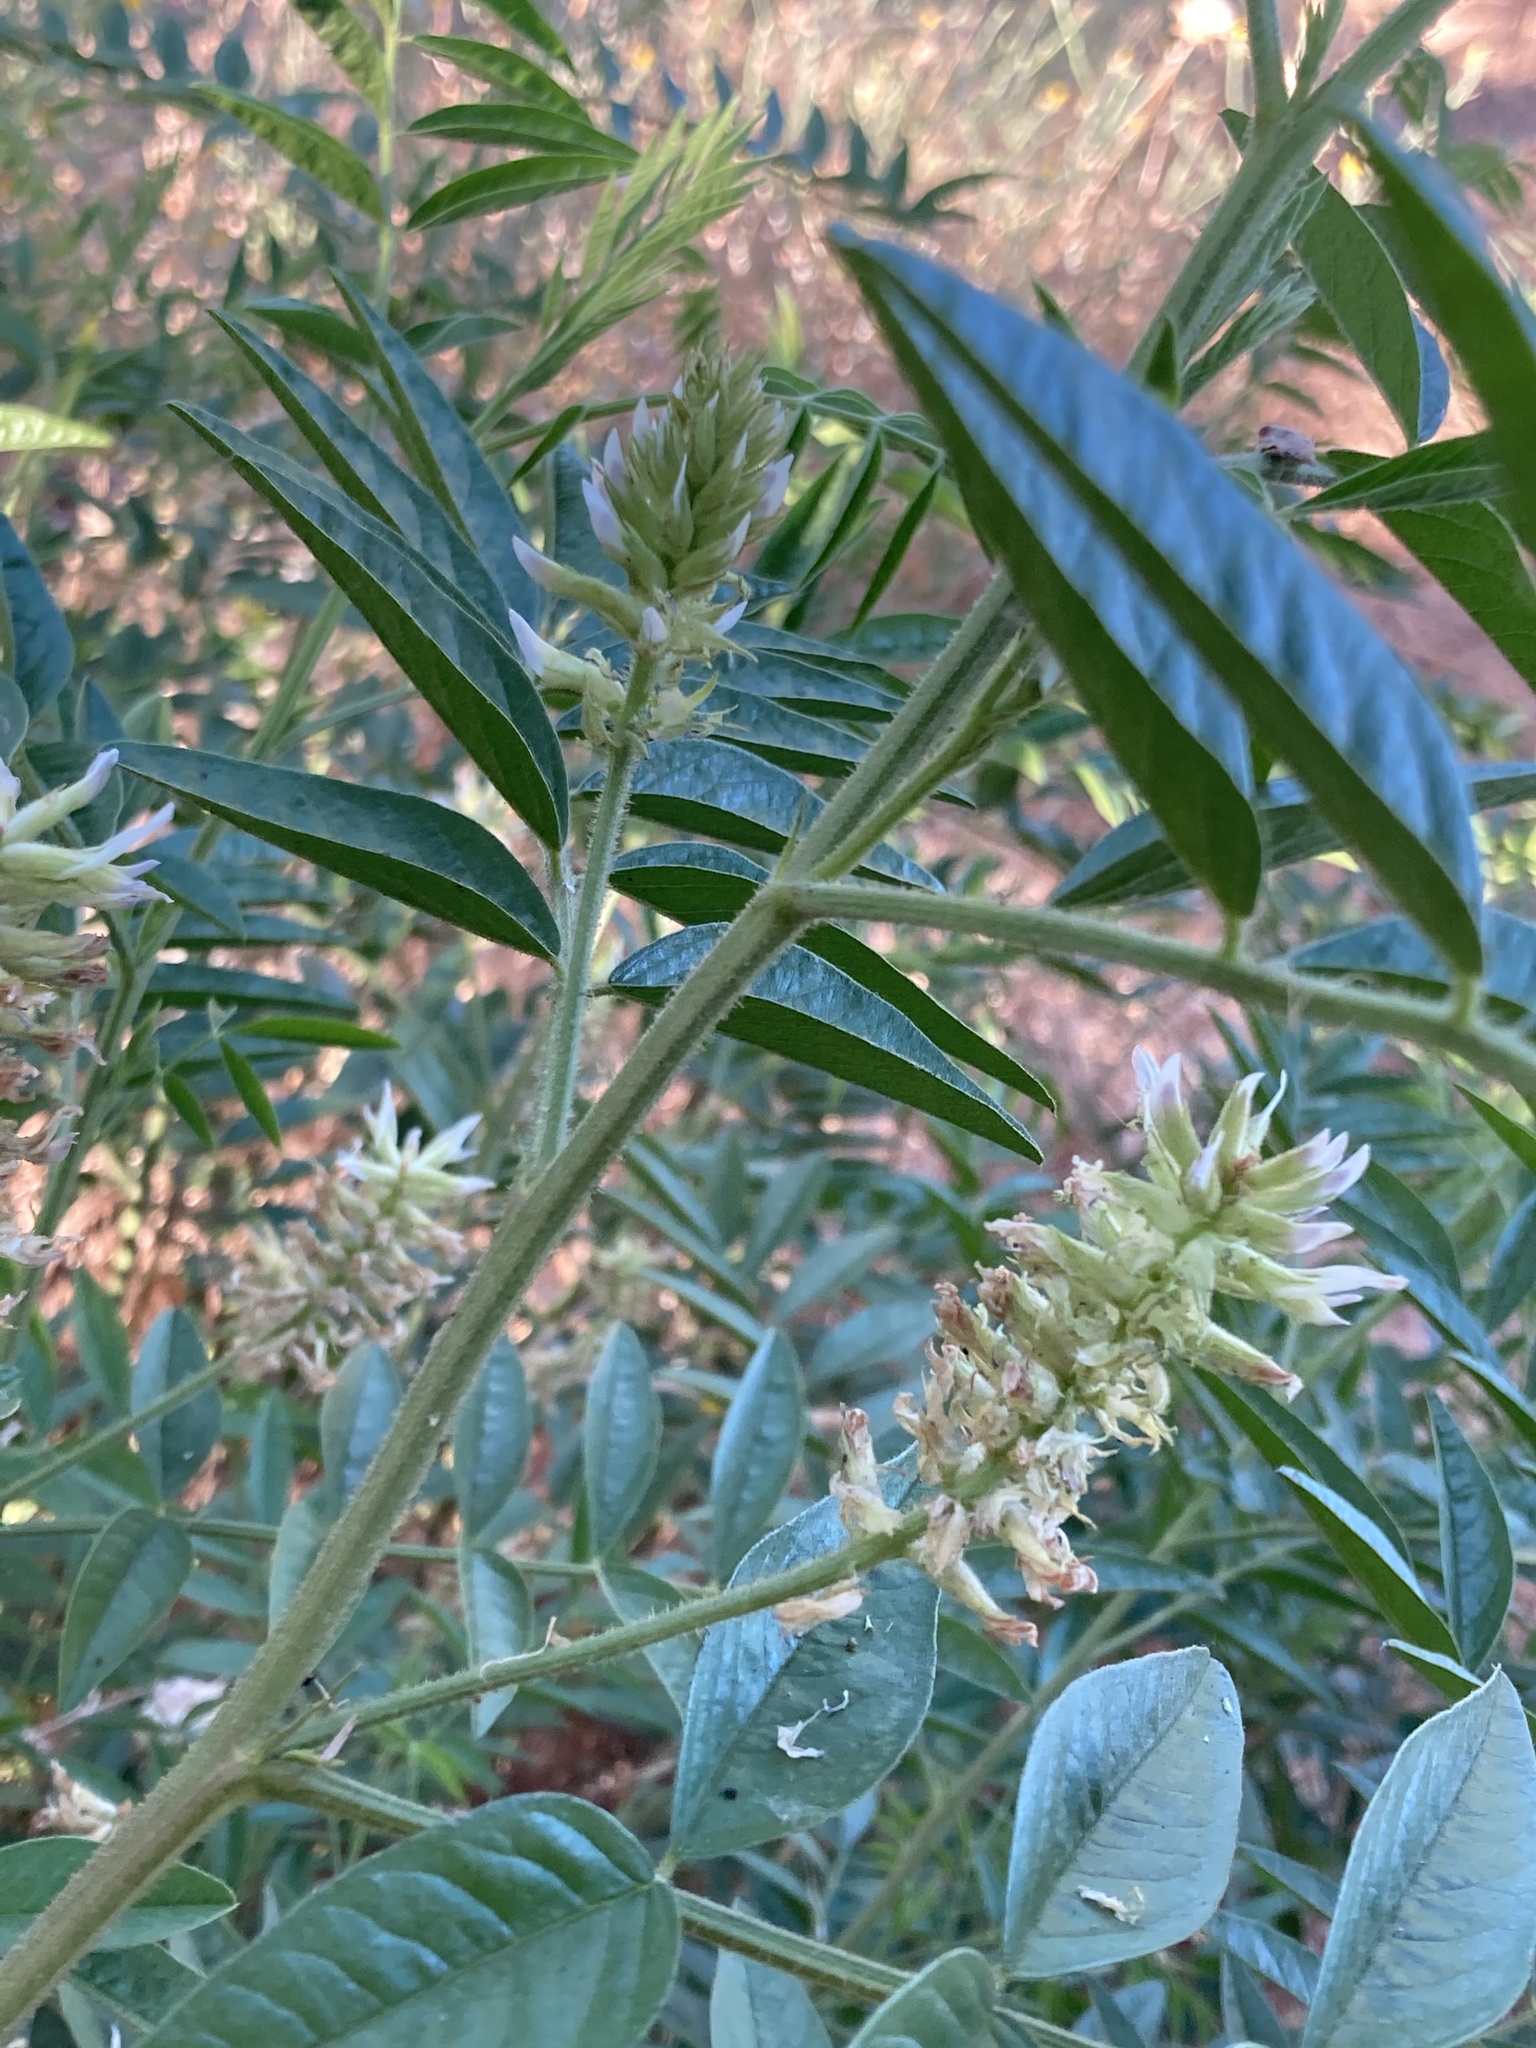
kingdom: Plantae
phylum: Tracheophyta
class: Magnoliopsida
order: Fabales
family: Fabaceae
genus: Glycyrrhiza
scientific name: Glycyrrhiza lepidota
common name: American liquorice
